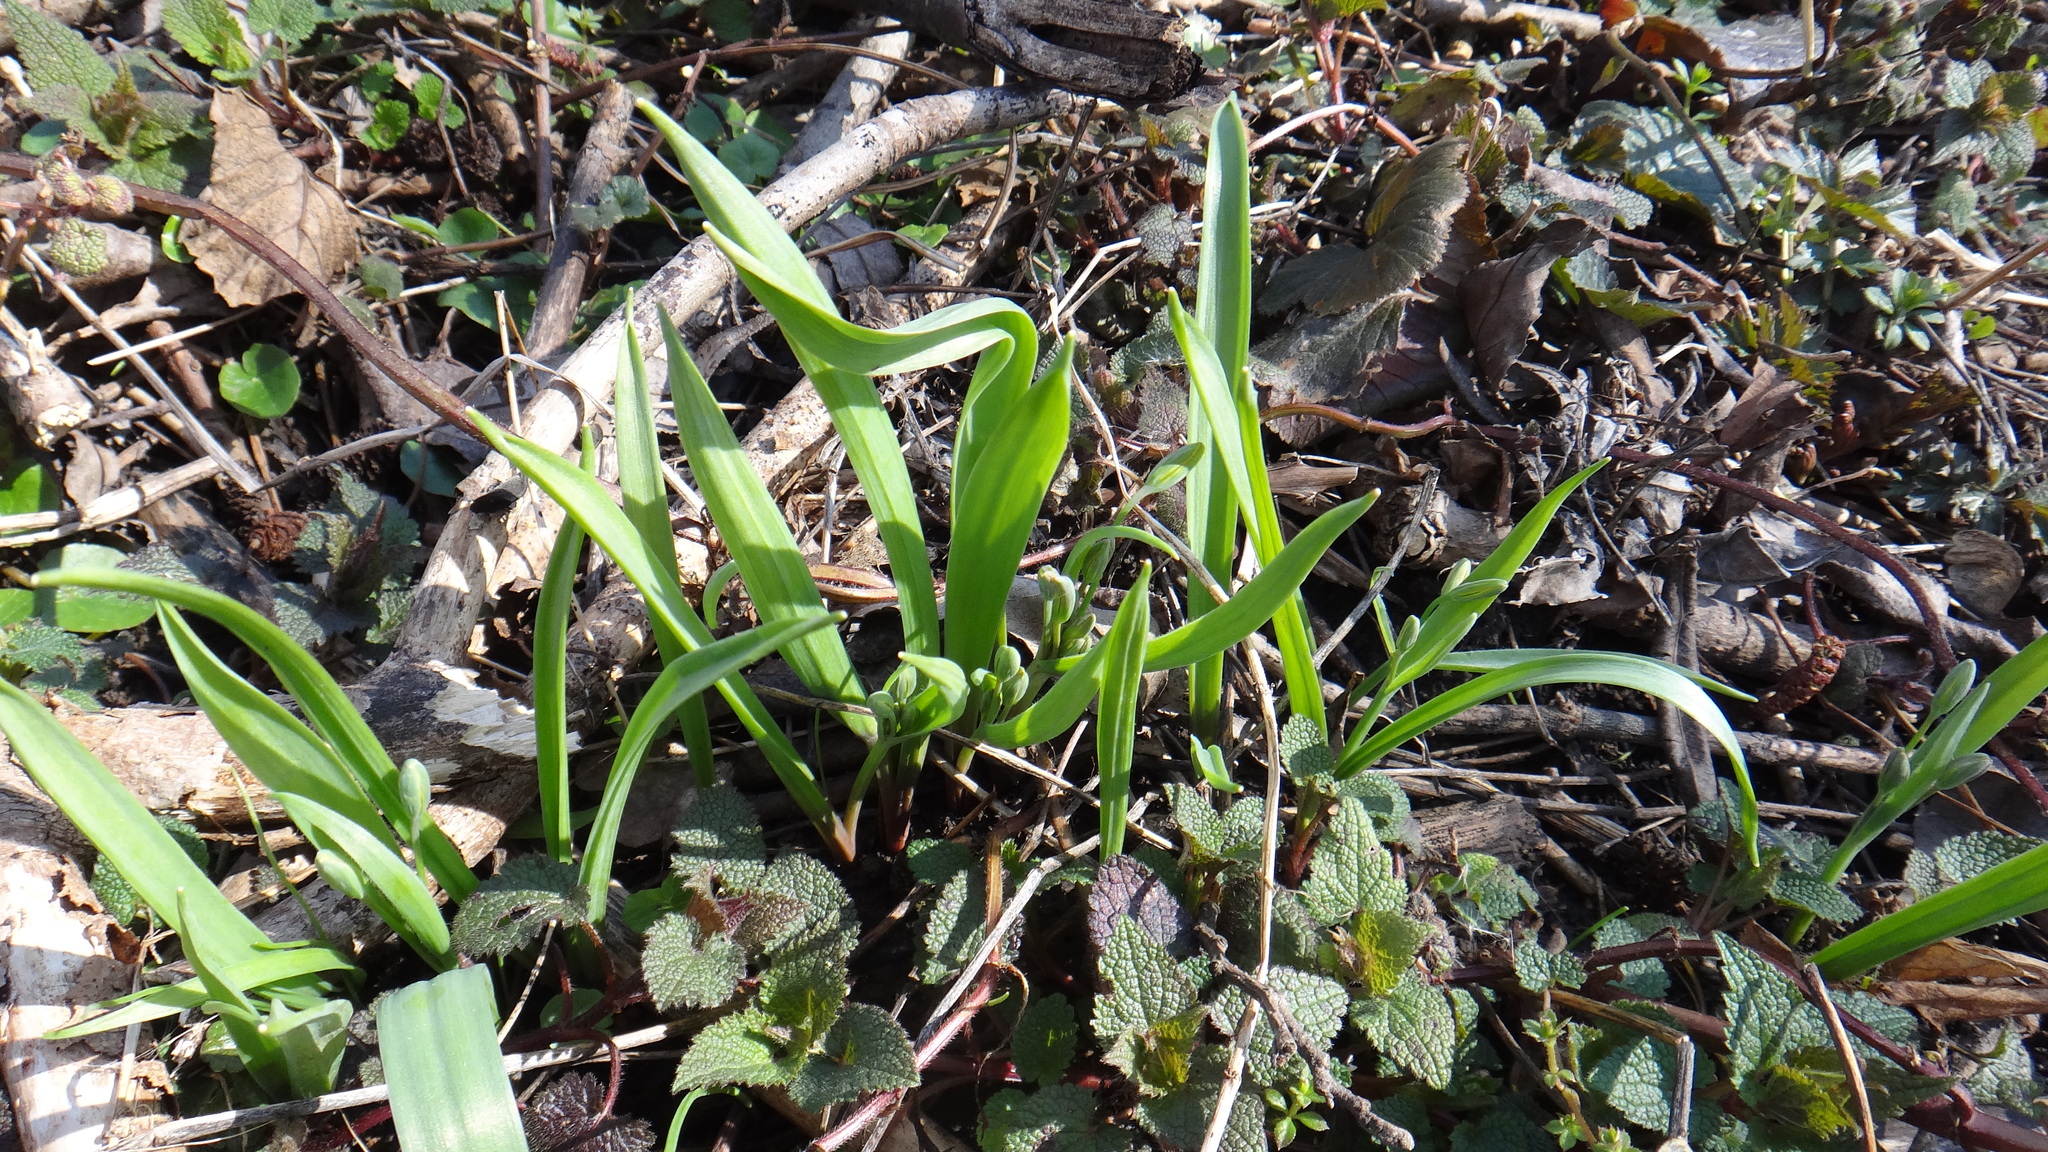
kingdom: Plantae
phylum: Tracheophyta
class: Liliopsida
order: Liliales
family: Liliaceae
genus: Gagea
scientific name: Gagea lutea
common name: Yellow star-of-bethlehem
